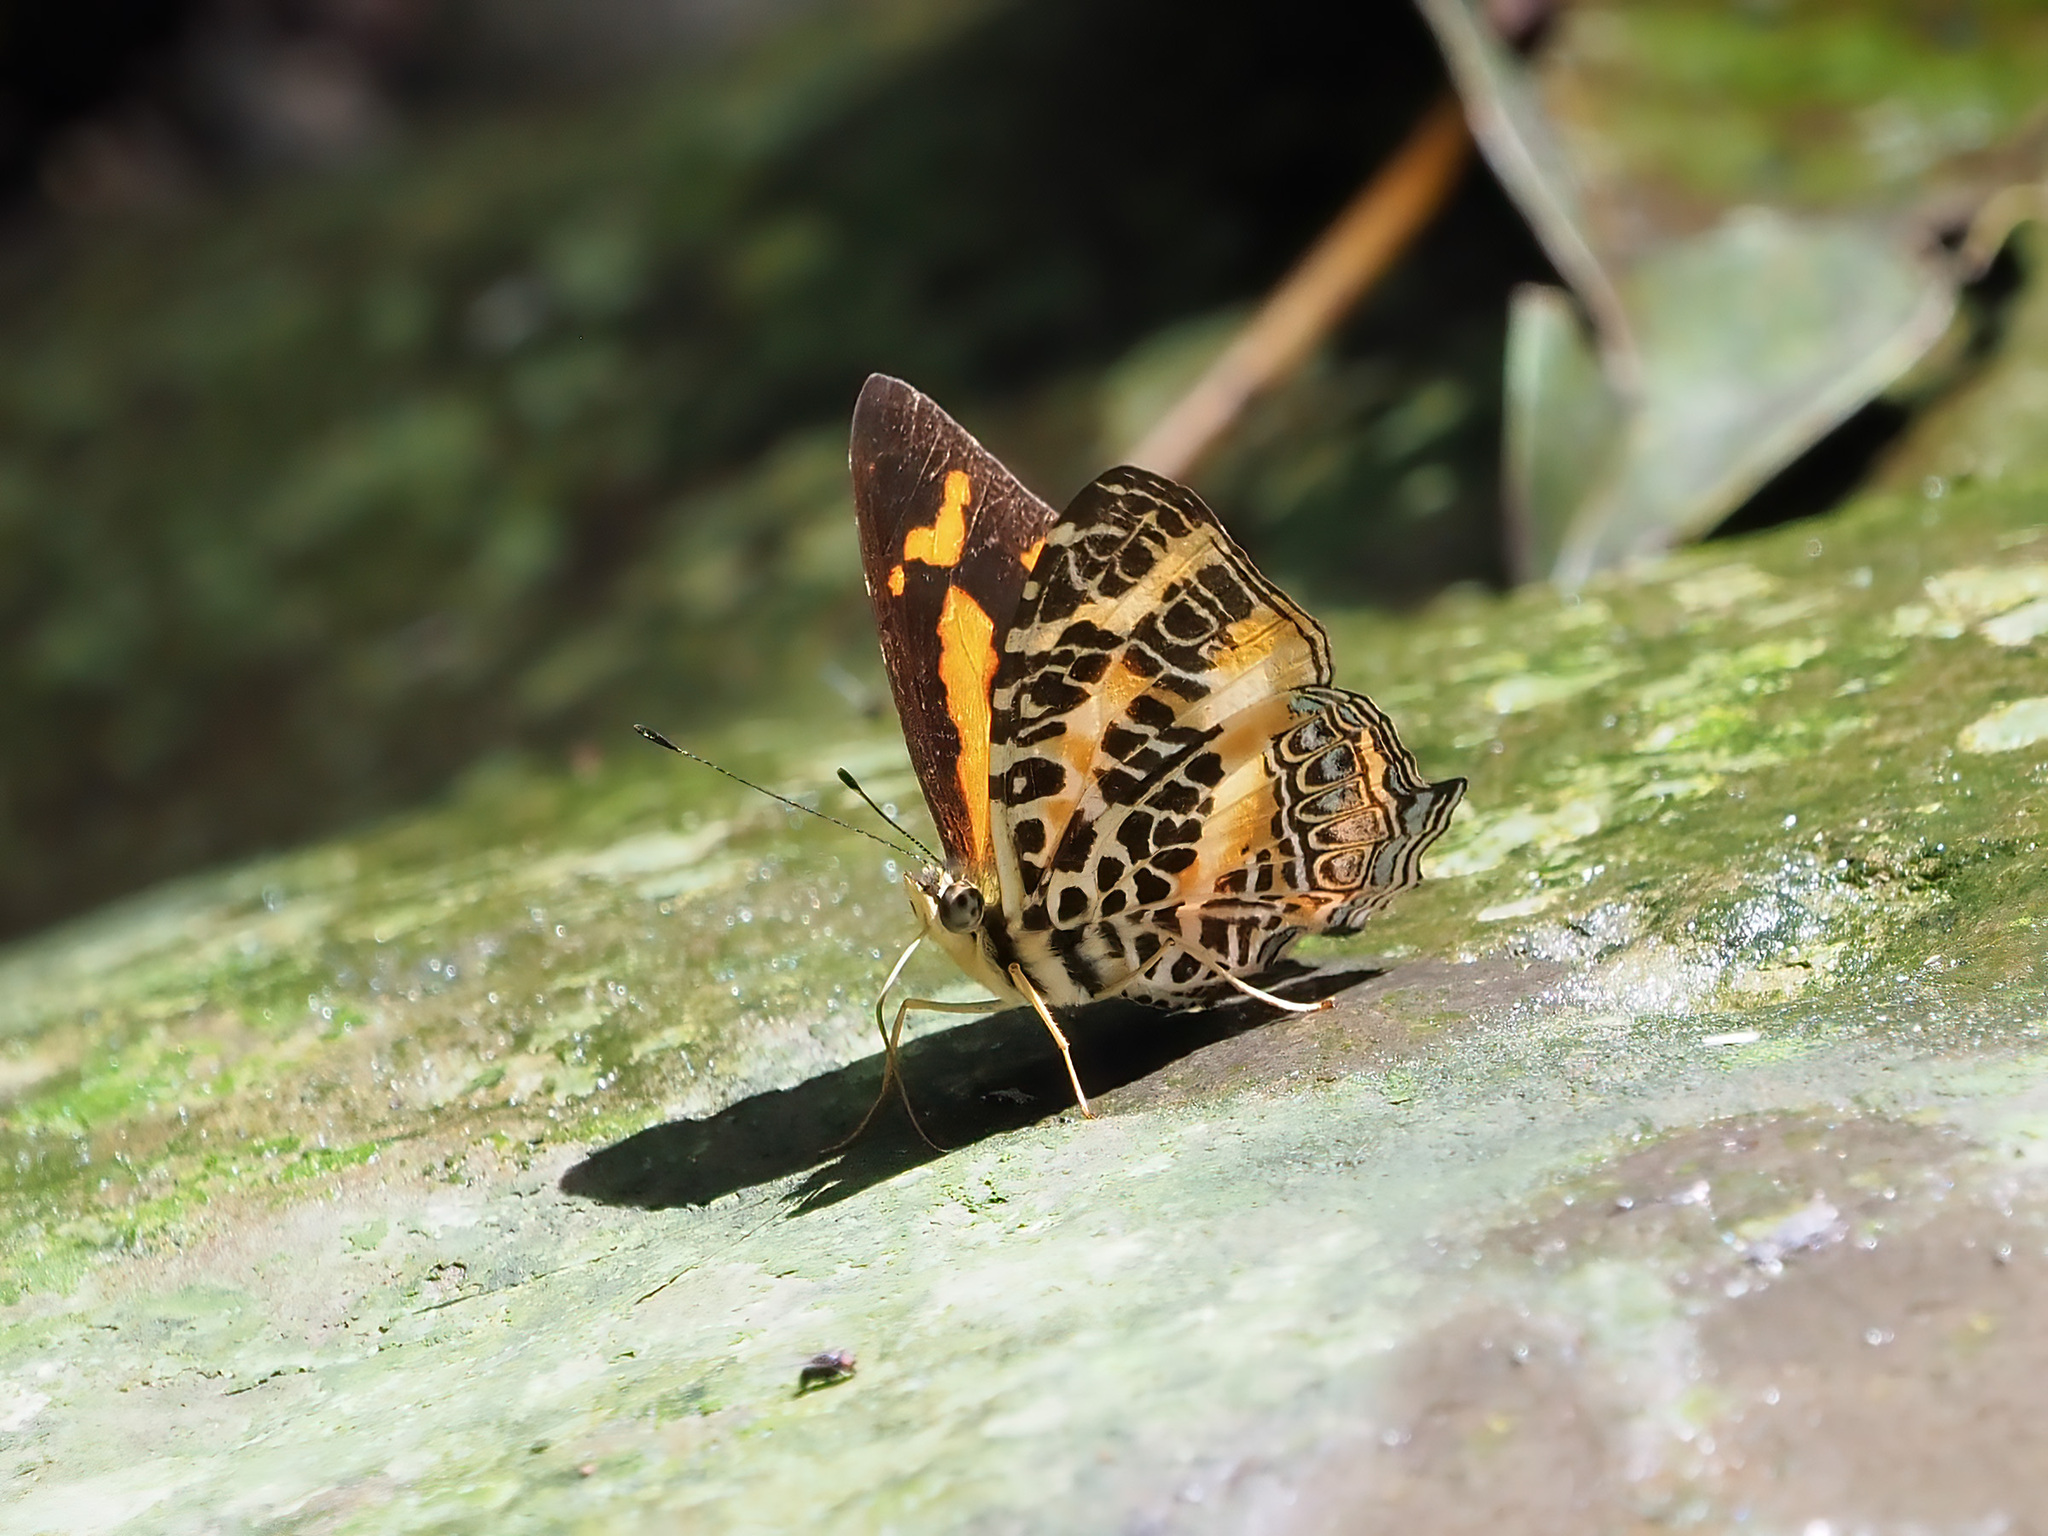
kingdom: Animalia
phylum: Arthropoda
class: Insecta
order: Lepidoptera
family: Nymphalidae
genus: Symbrenthia
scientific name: Symbrenthia hypselis
